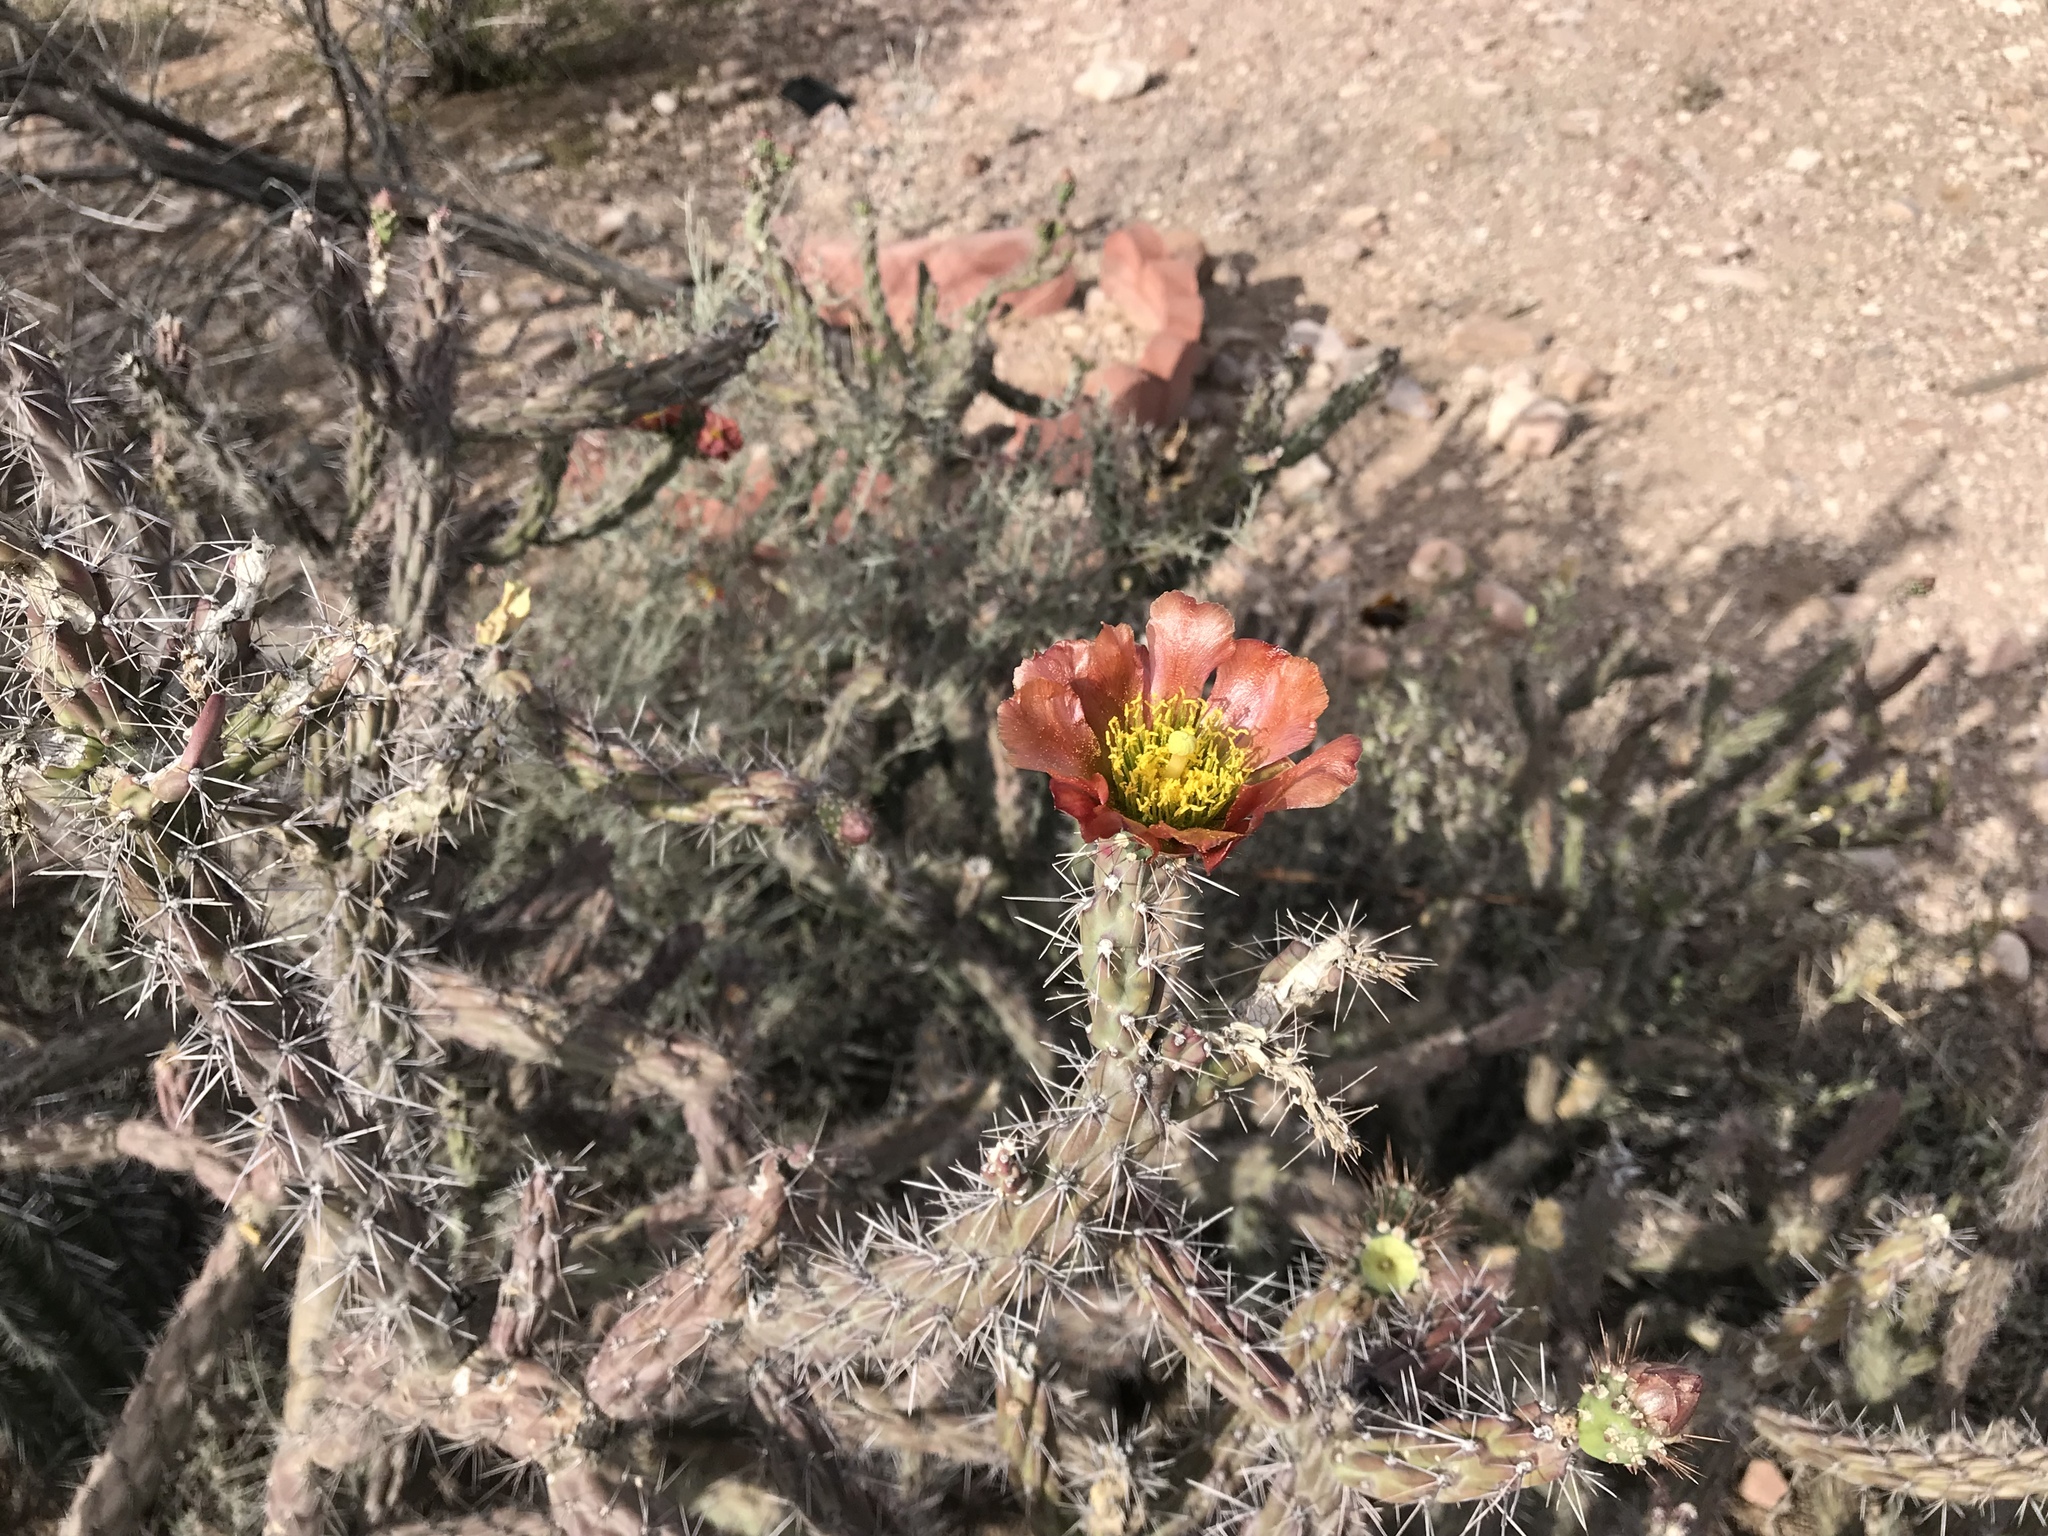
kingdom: Plantae
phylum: Tracheophyta
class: Magnoliopsida
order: Caryophyllales
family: Cactaceae
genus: Cylindropuntia
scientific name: Cylindropuntia thurberi
